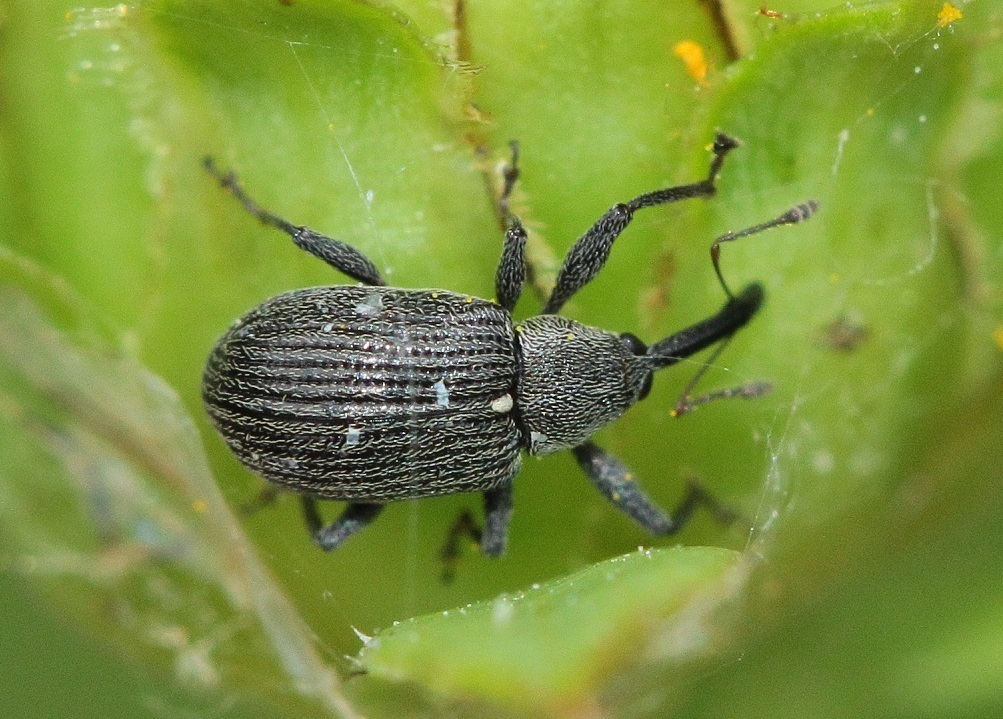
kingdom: Animalia
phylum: Arthropoda
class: Insecta
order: Coleoptera
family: Curculionidae
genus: Anthonomus
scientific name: Anthonomus rubi
